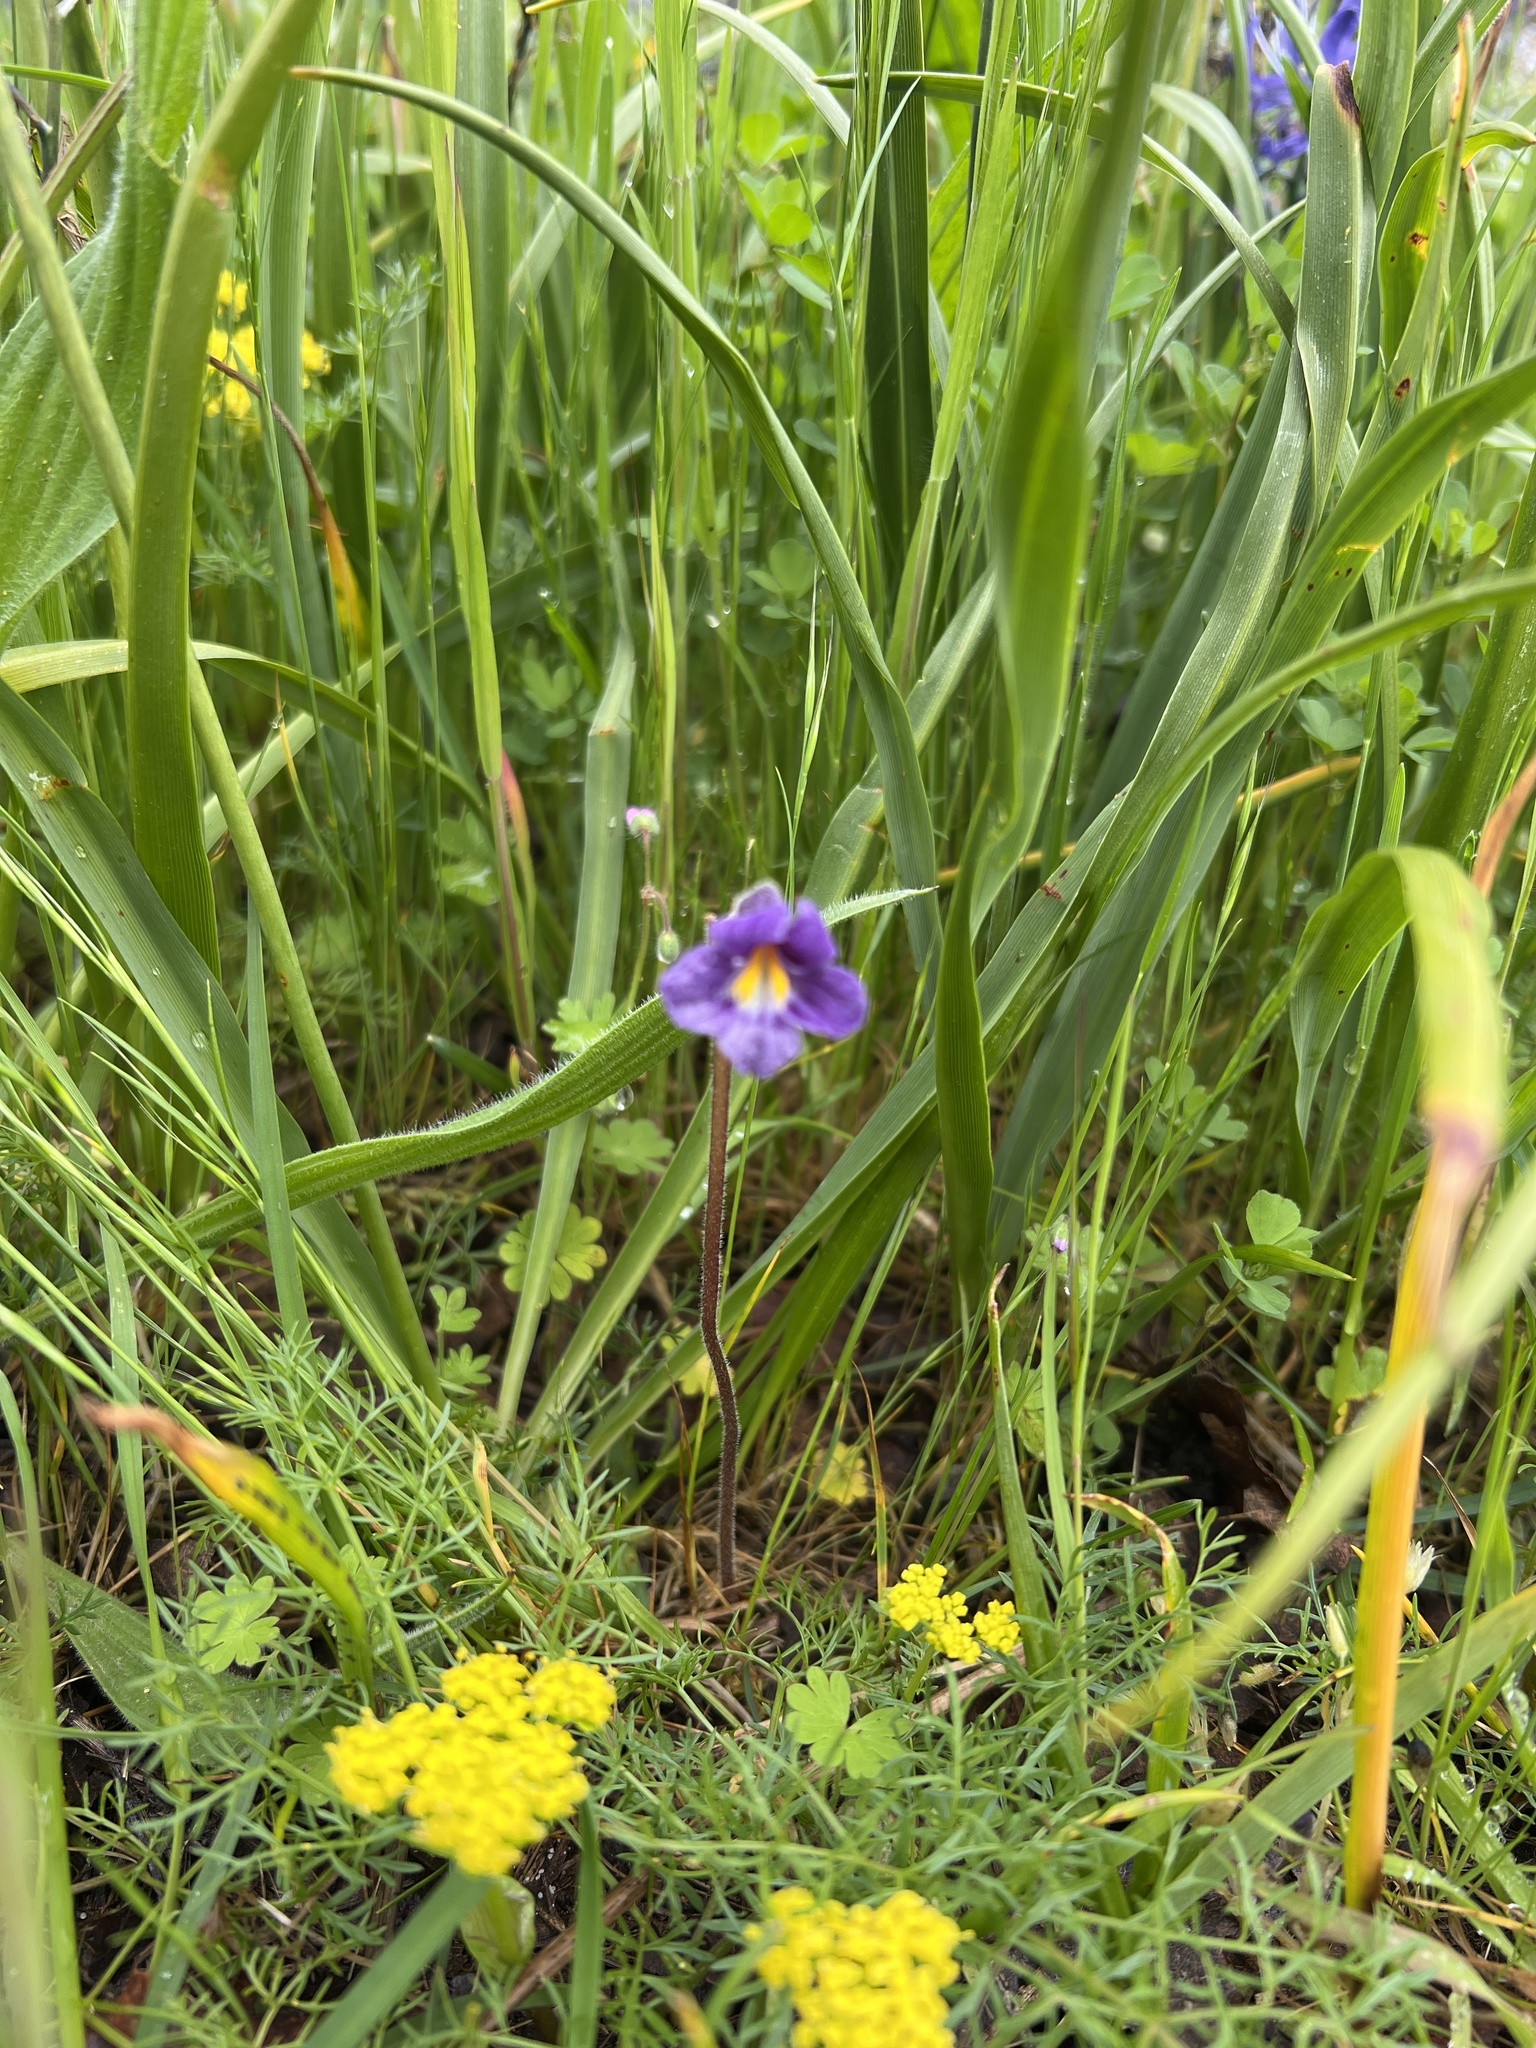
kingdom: Plantae
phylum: Tracheophyta
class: Magnoliopsida
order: Lamiales
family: Orobanchaceae
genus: Aphyllon
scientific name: Aphyllon uniflorum
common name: One-flowered broomrape
